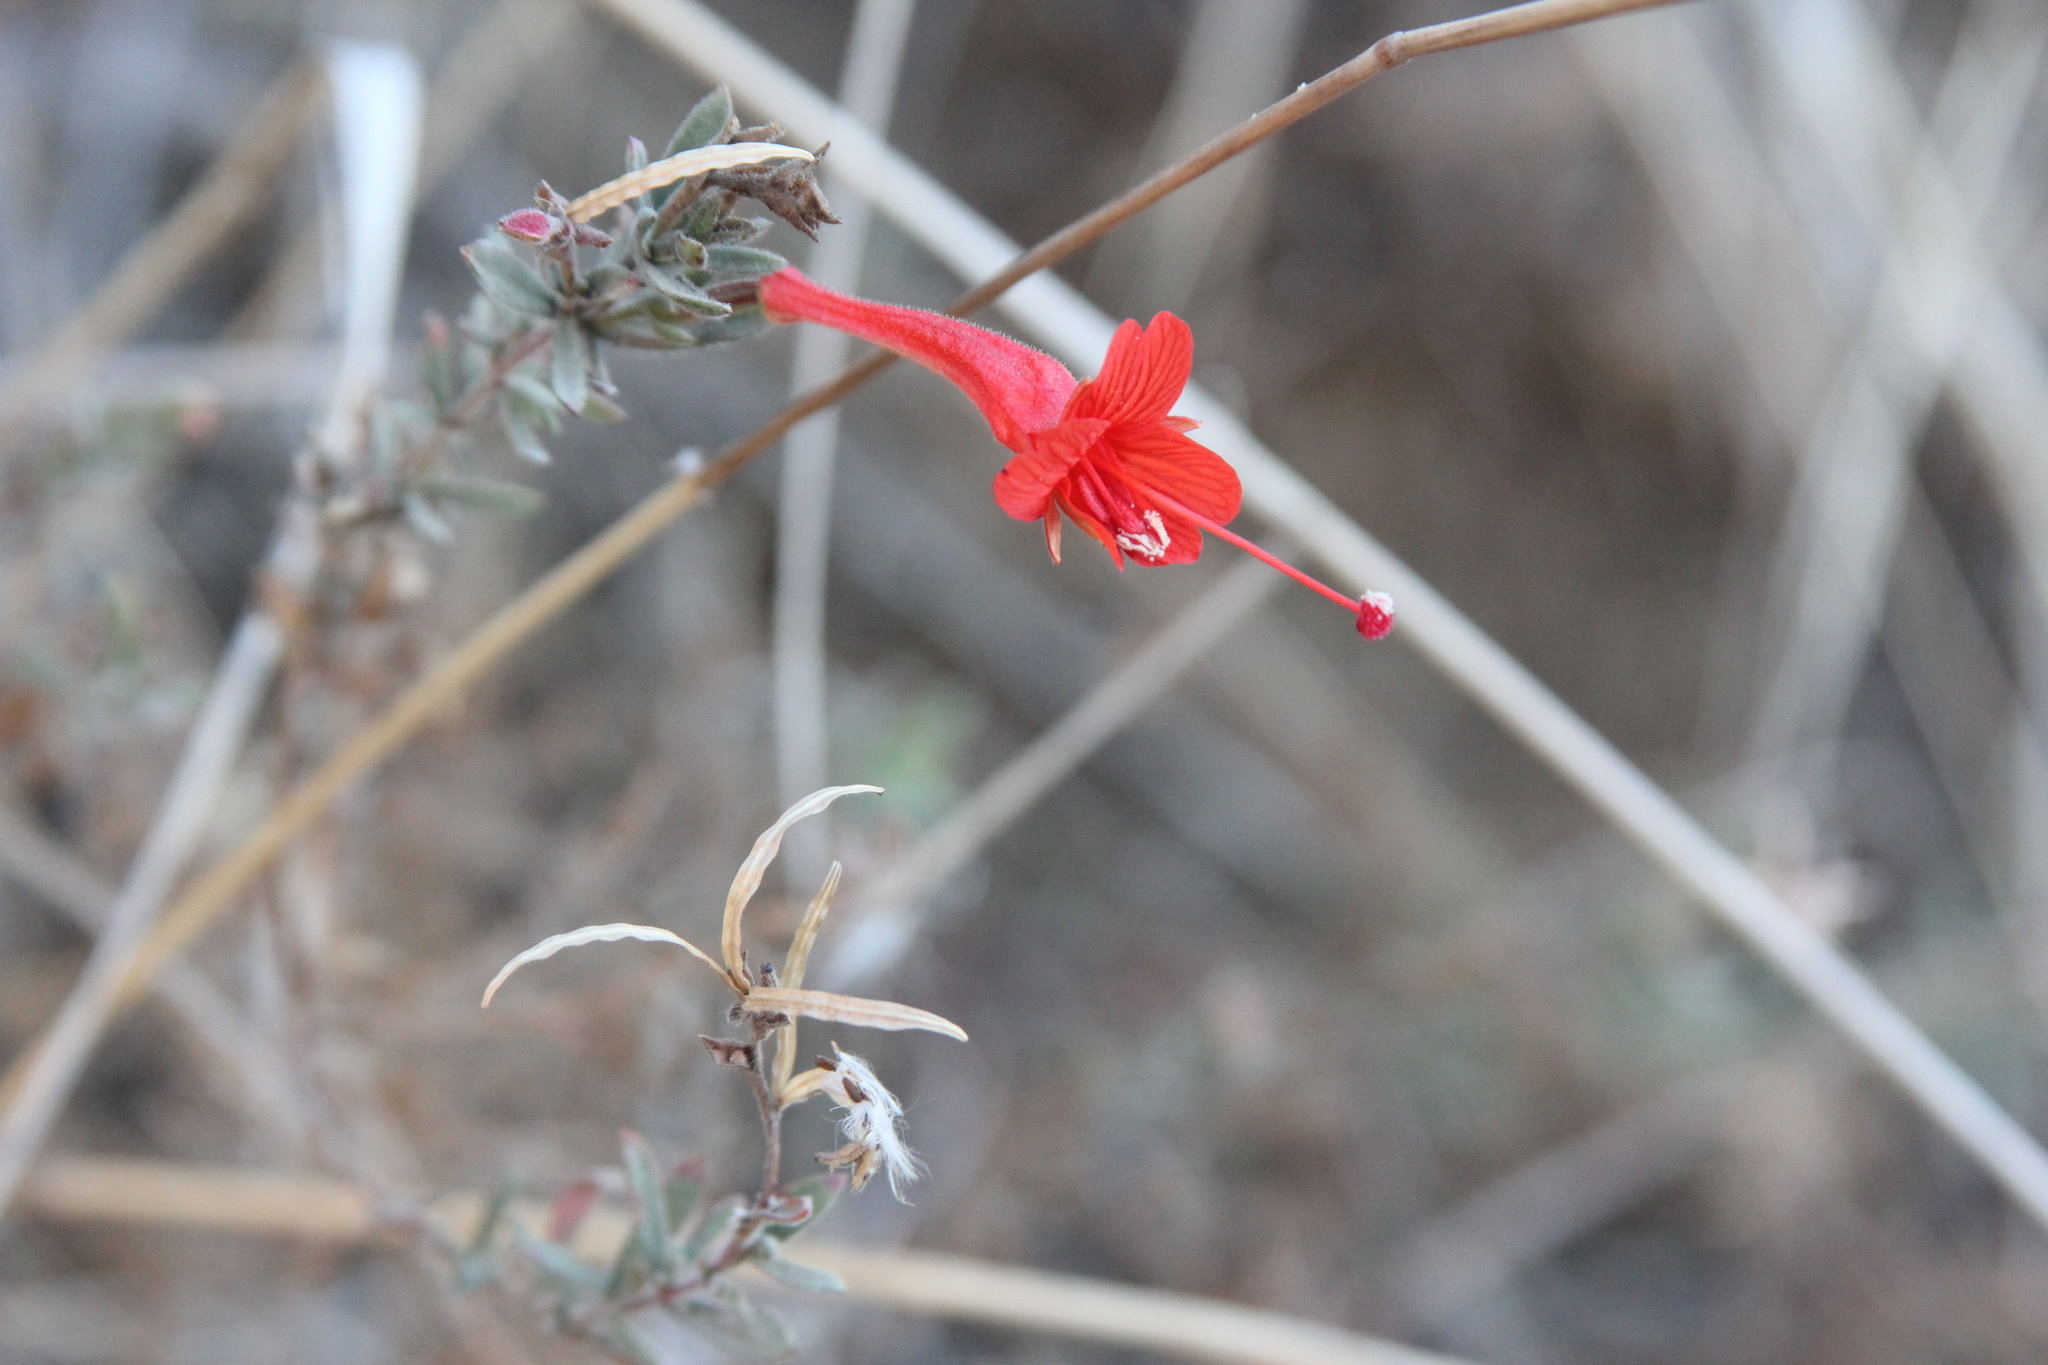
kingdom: Plantae
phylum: Tracheophyta
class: Magnoliopsida
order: Myrtales
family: Onagraceae
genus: Epilobium
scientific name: Epilobium canum
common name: California-fuchsia
